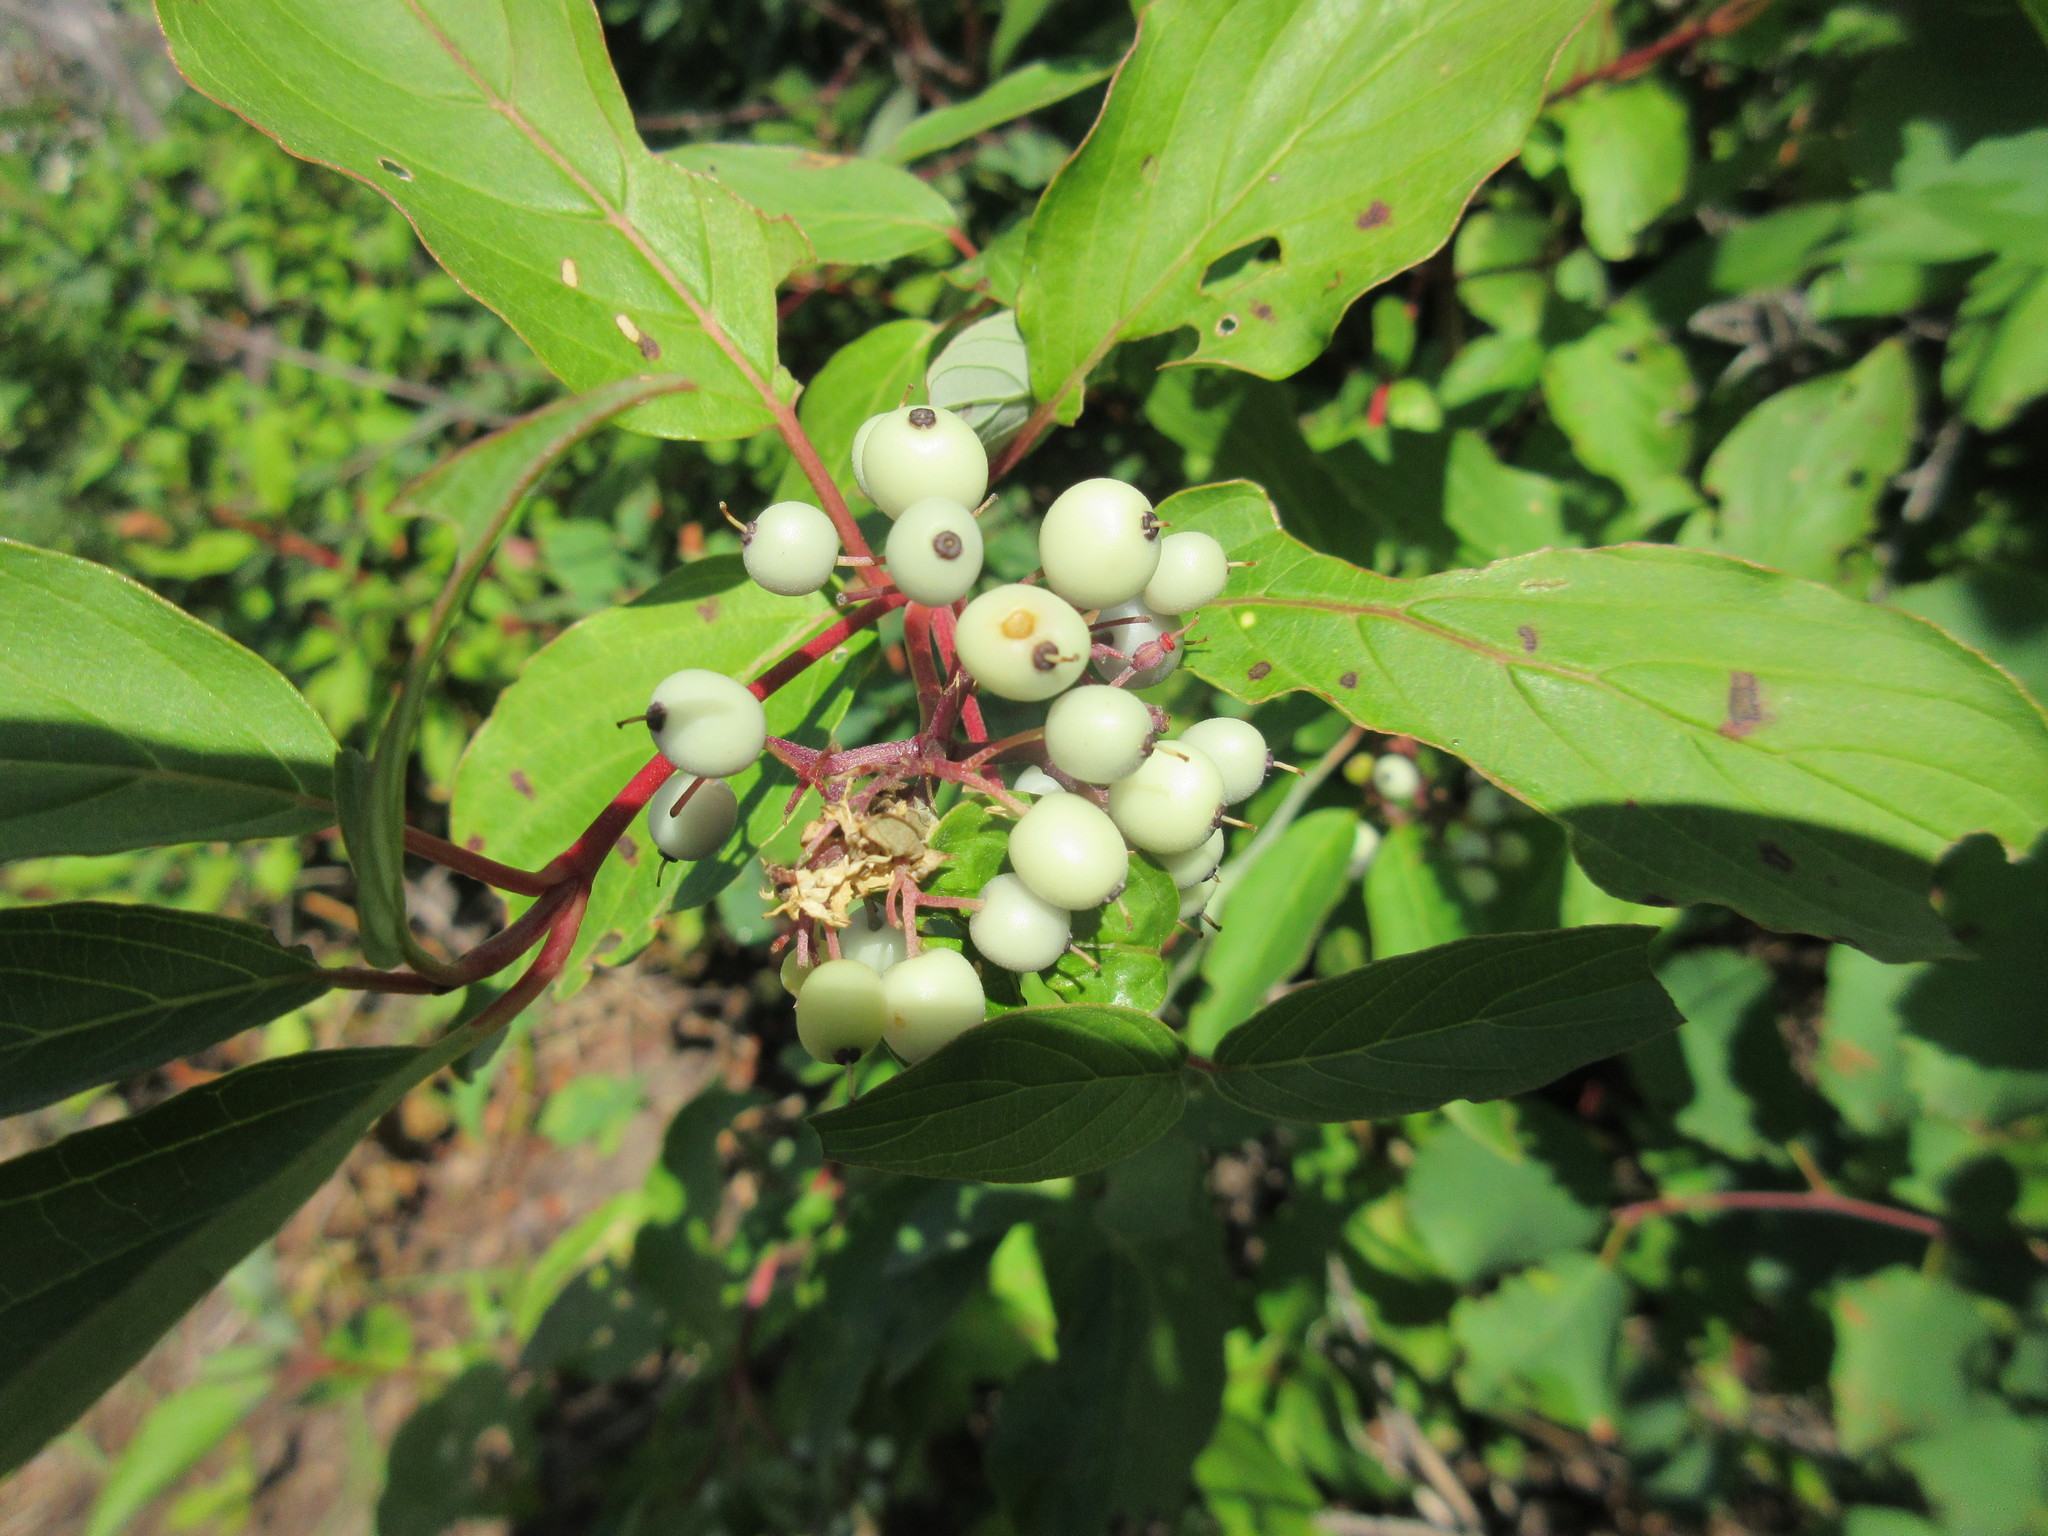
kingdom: Plantae
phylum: Tracheophyta
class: Magnoliopsida
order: Cornales
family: Cornaceae
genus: Cornus
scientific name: Cornus sericea
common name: Red-osier dogwood
